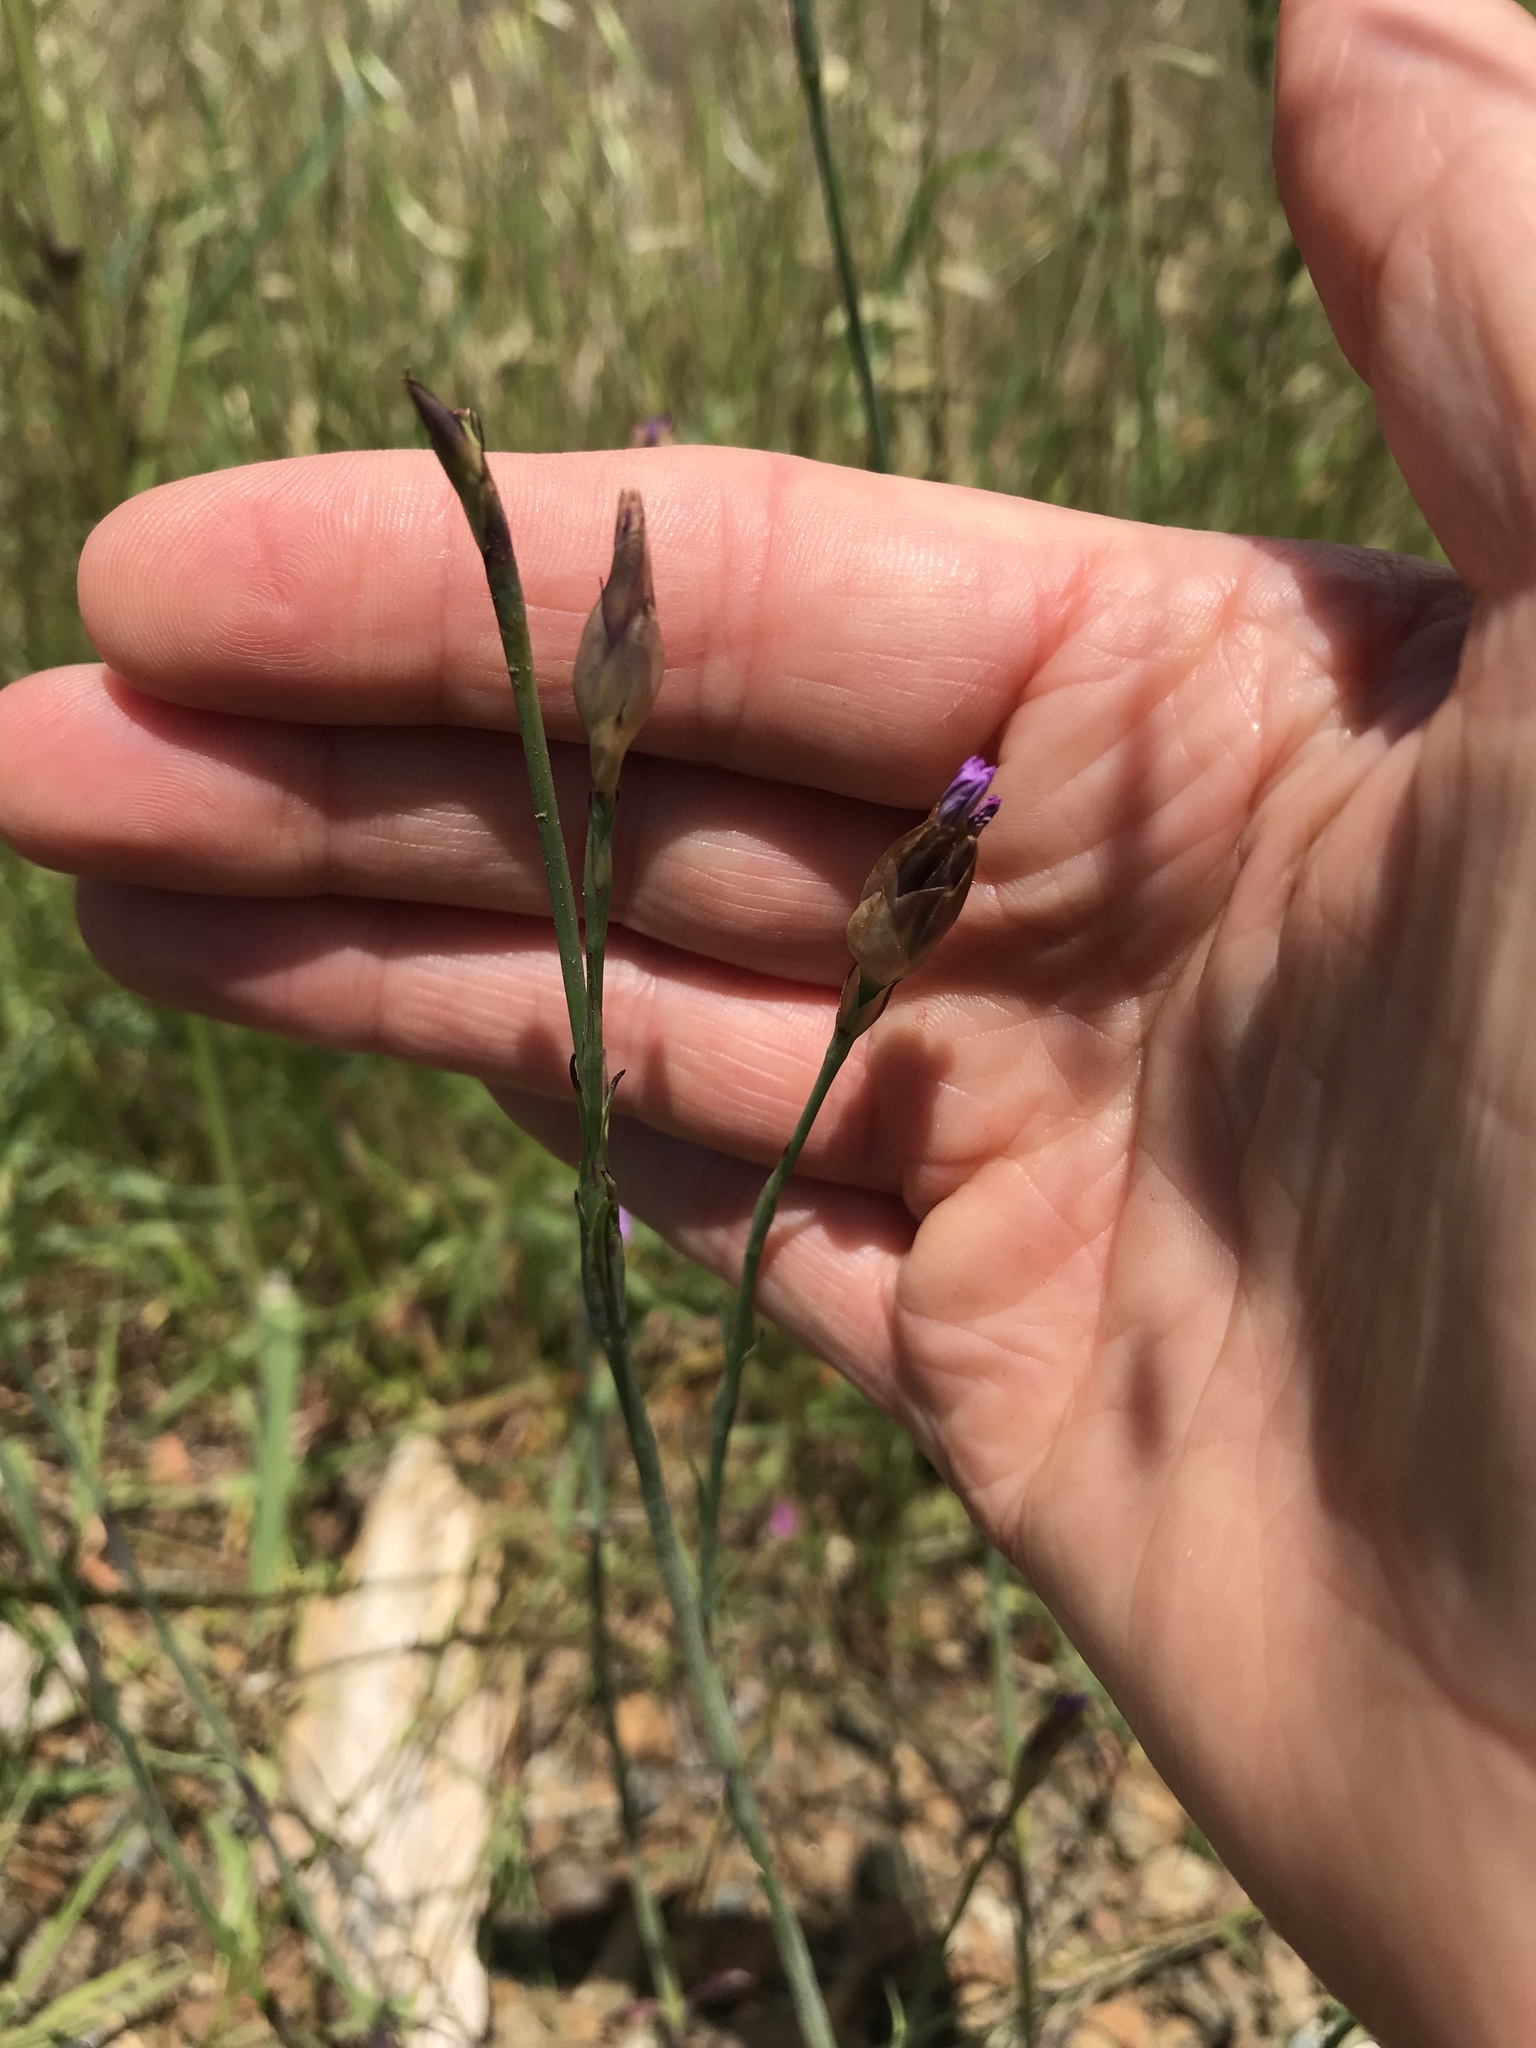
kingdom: Plantae
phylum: Tracheophyta
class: Magnoliopsida
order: Caryophyllales
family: Caryophyllaceae
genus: Petrorhagia
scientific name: Petrorhagia dubia
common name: Hairypink
